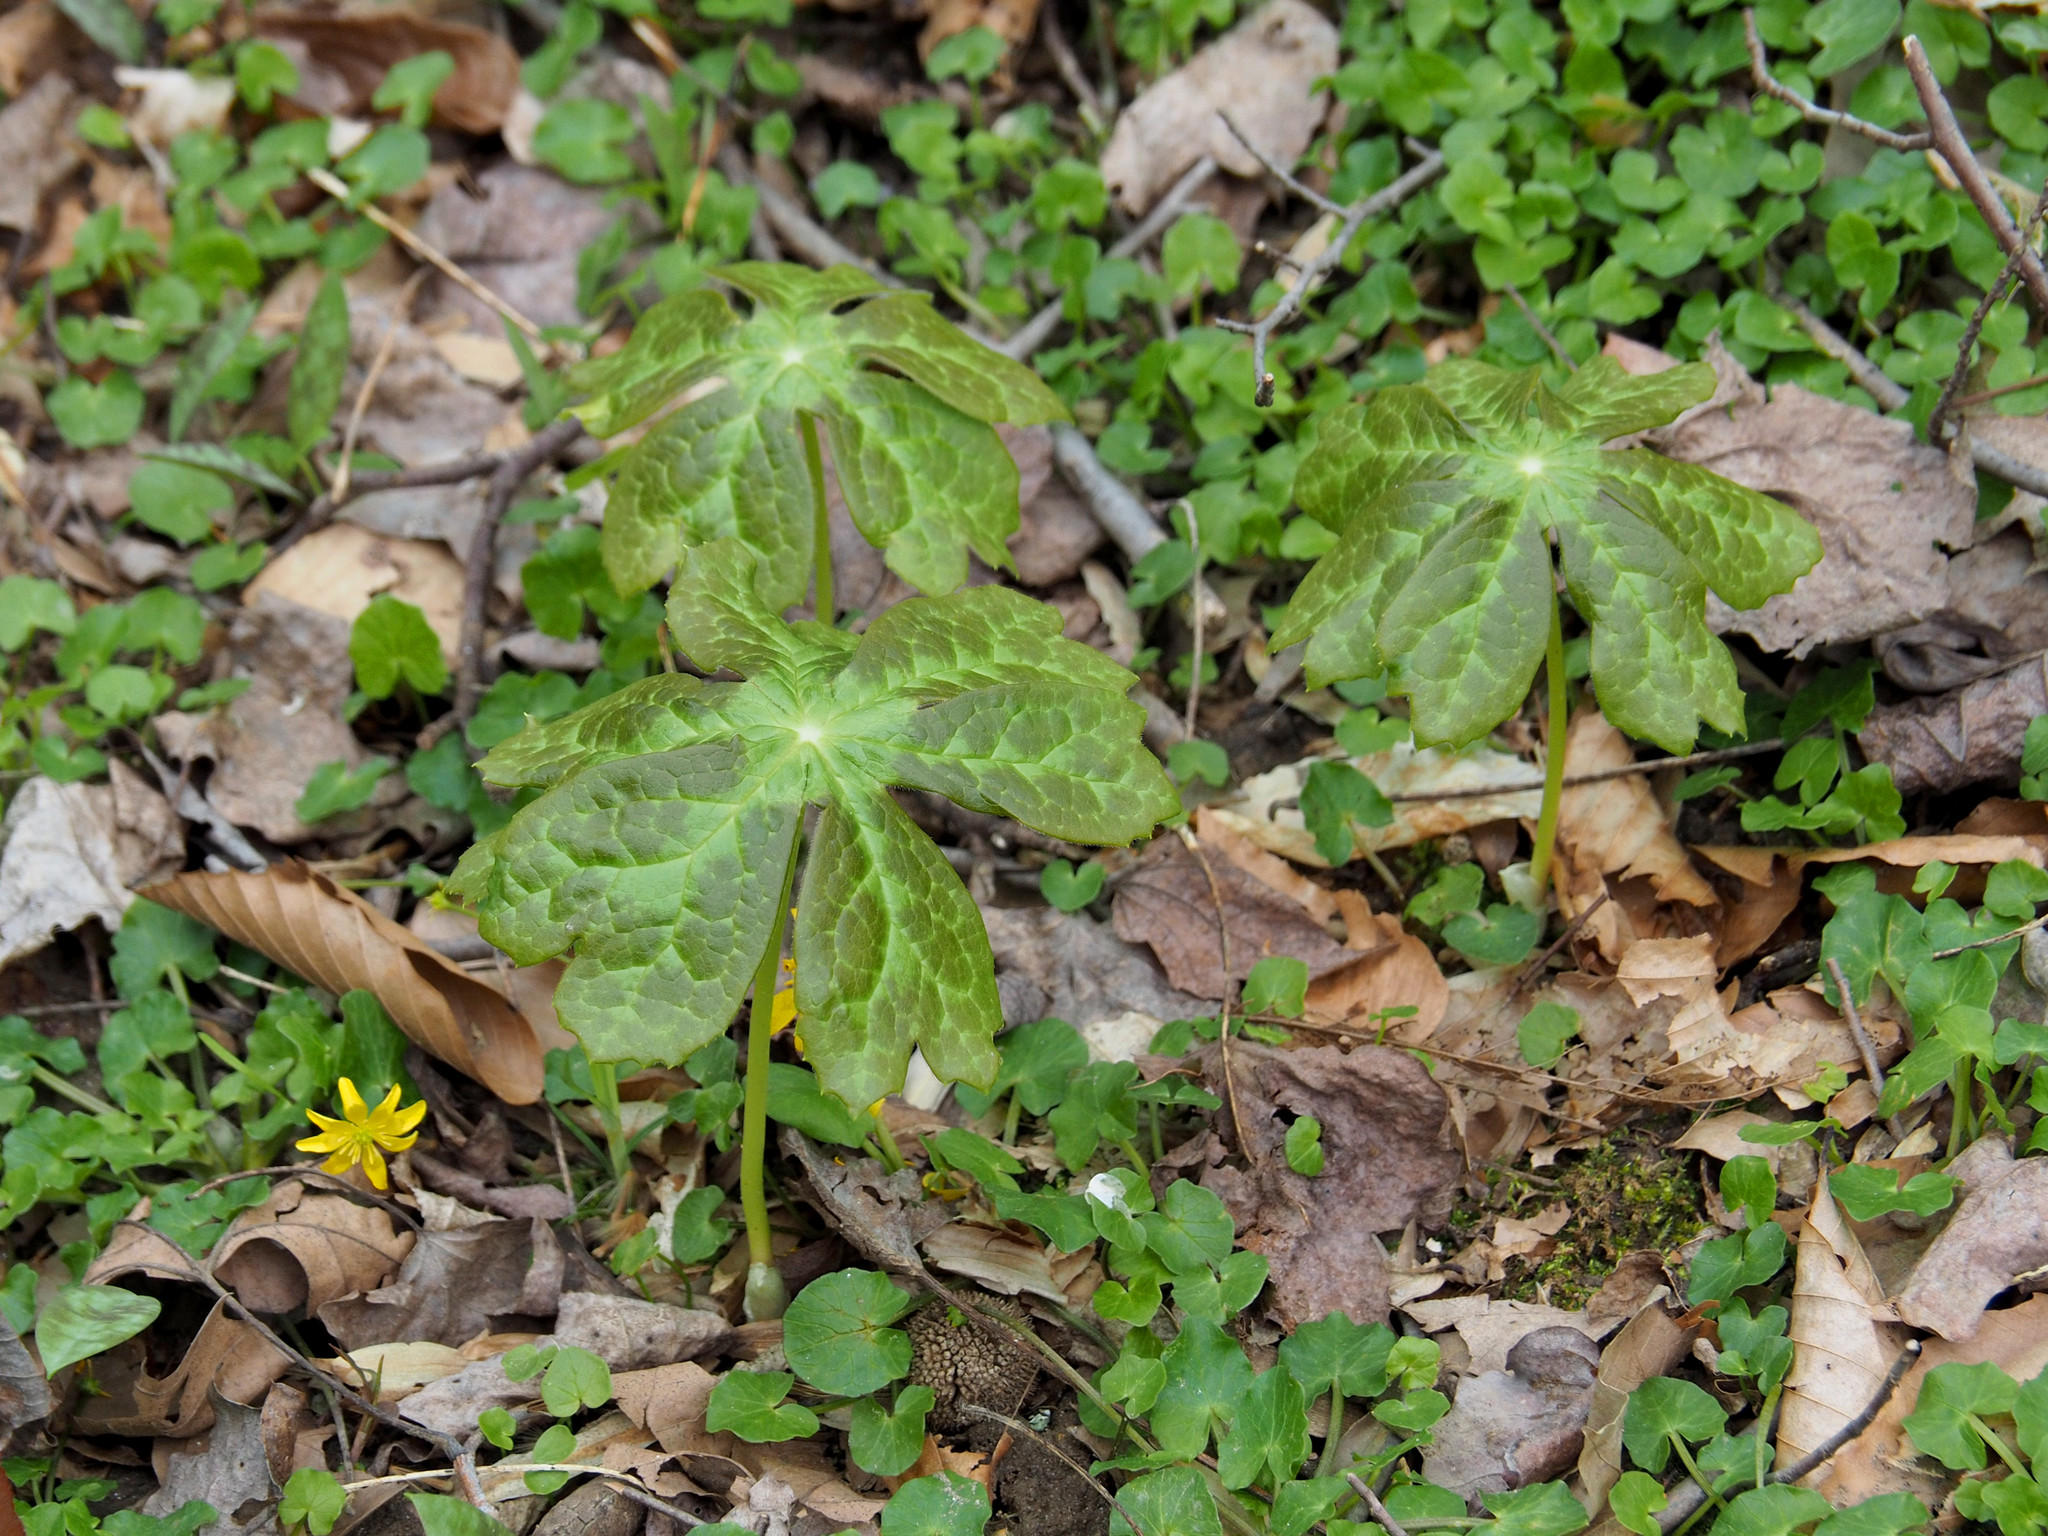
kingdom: Plantae
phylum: Tracheophyta
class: Magnoliopsida
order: Ranunculales
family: Berberidaceae
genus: Podophyllum
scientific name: Podophyllum peltatum
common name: Wild mandrake
